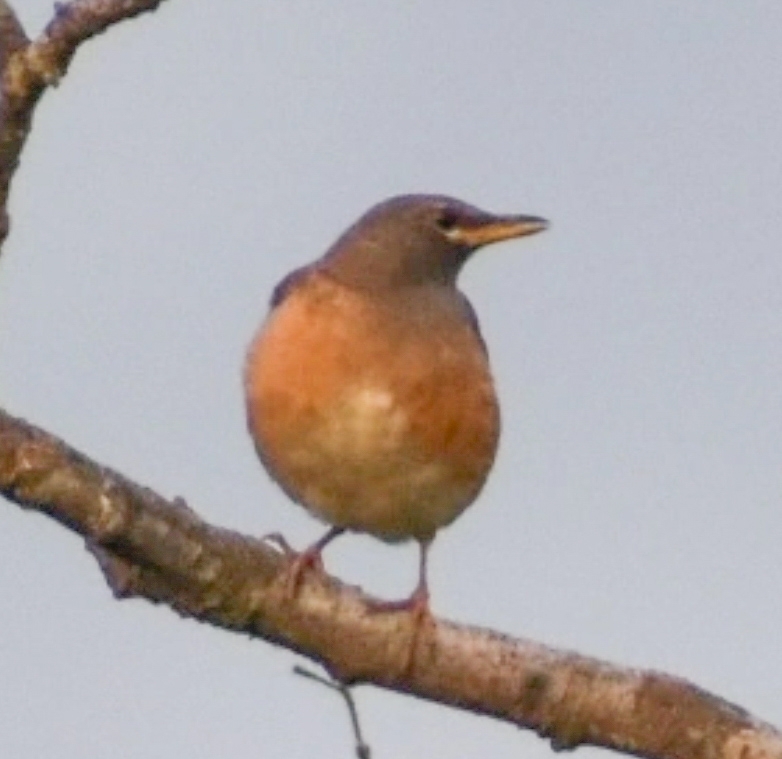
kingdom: Animalia
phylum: Chordata
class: Aves
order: Passeriformes
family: Turdidae
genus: Turdus
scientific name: Turdus chrysolaus
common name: Brown-headed thrush
